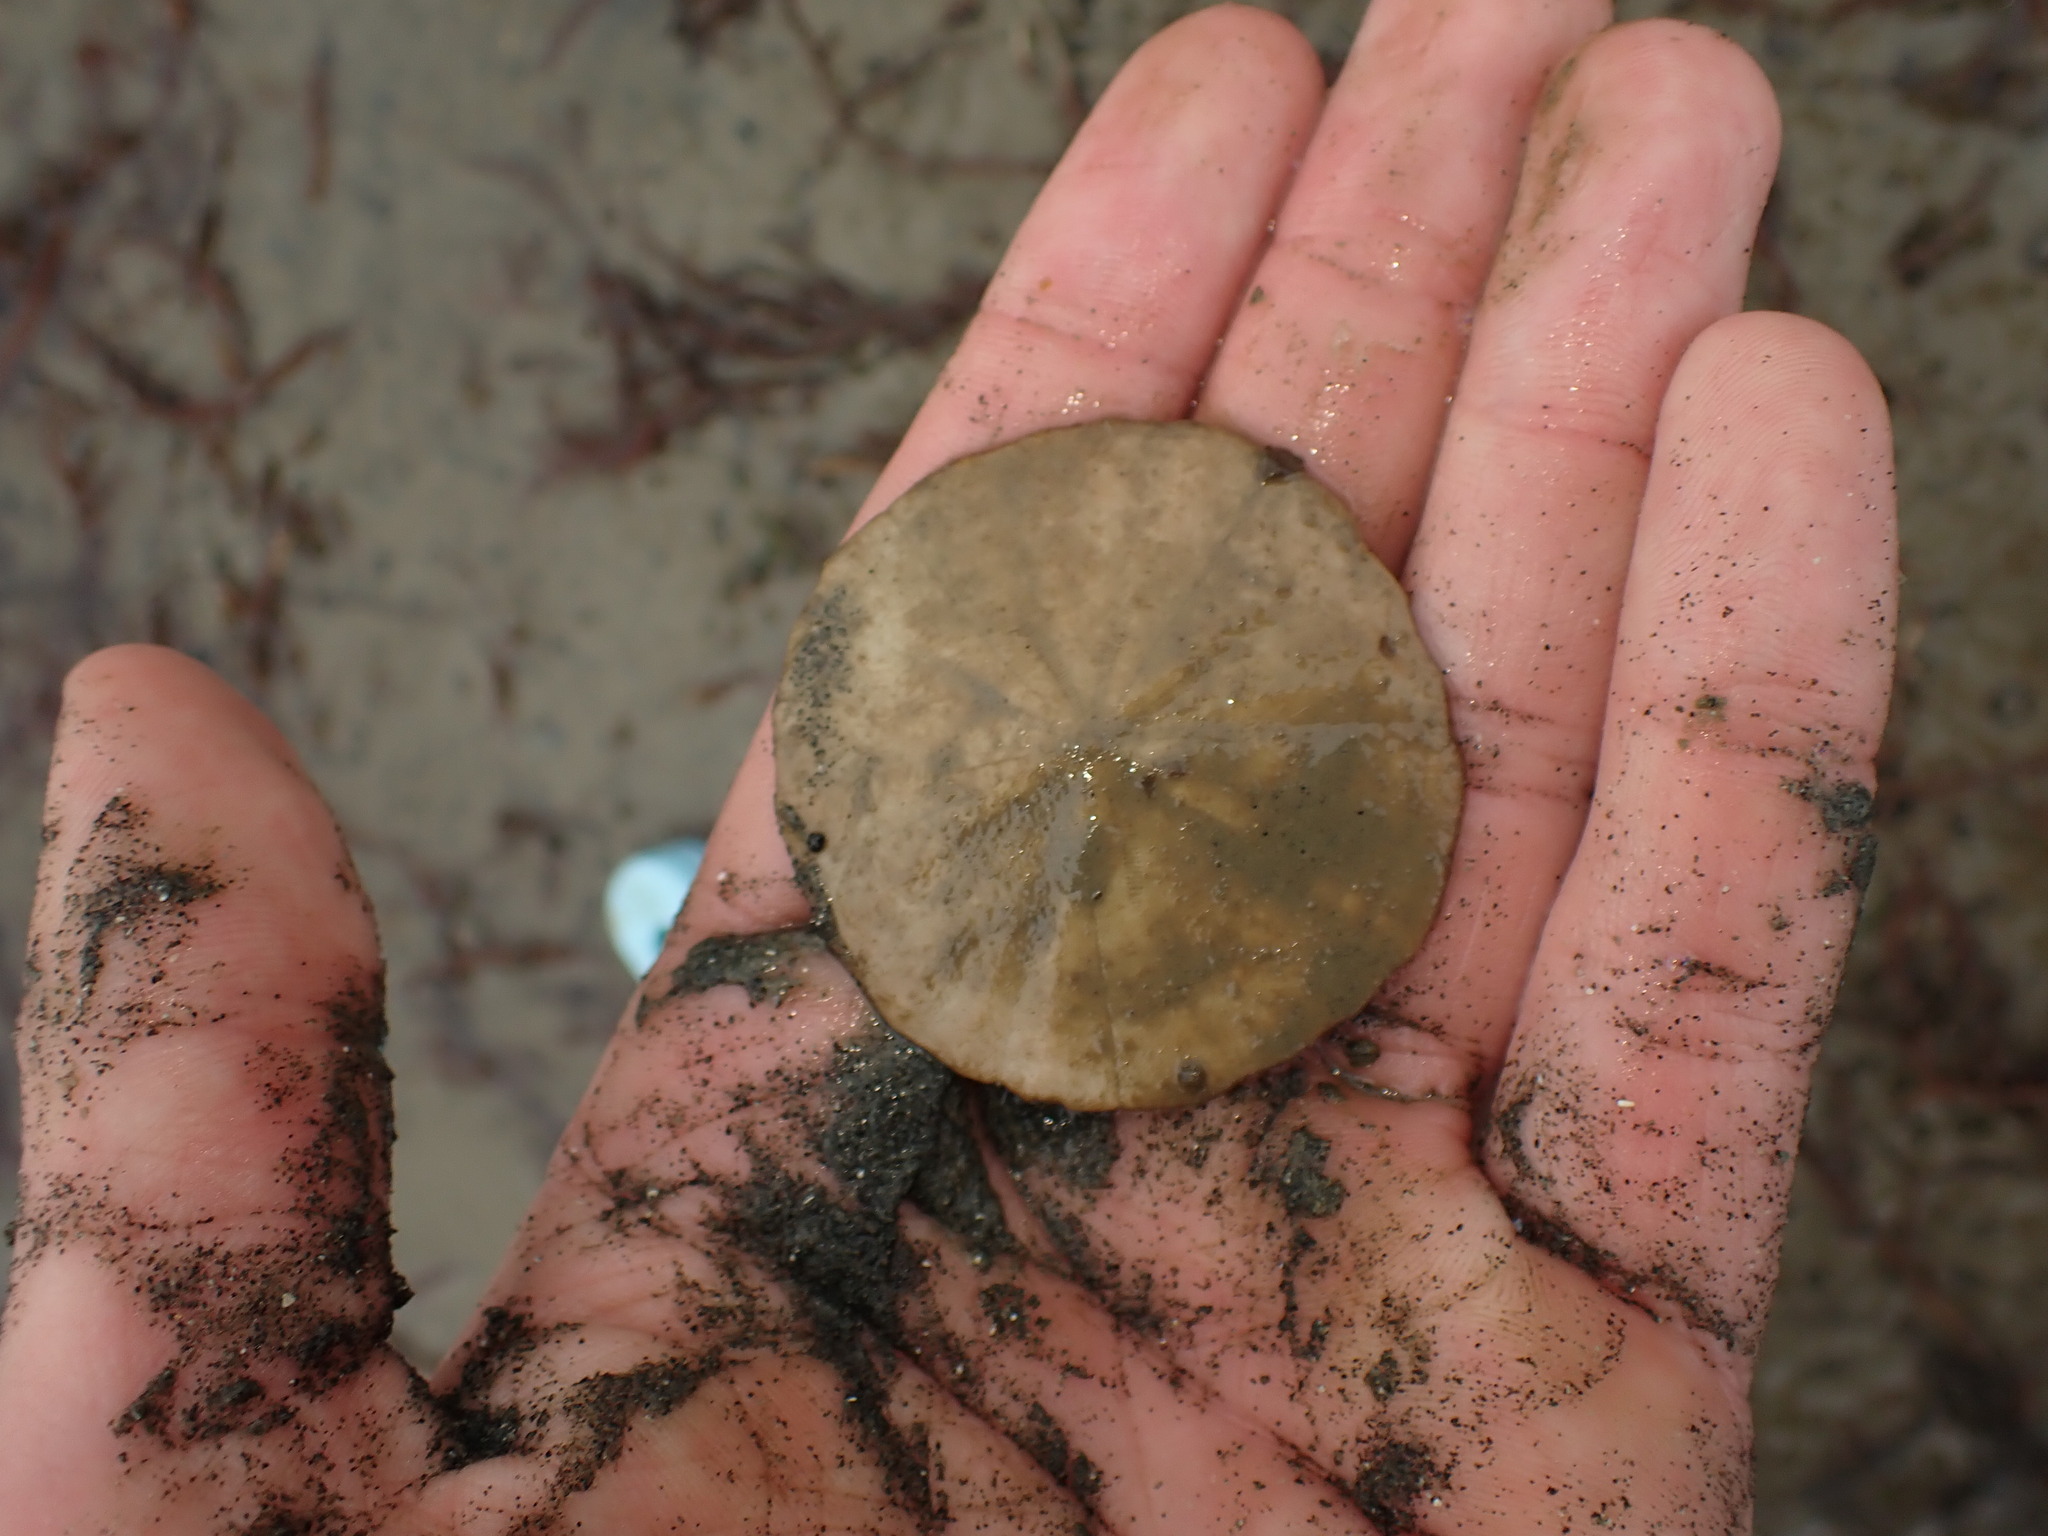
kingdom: Animalia
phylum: Echinodermata
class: Echinoidea
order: Clypeasteroida
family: Clypeasteridae
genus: Fellaster
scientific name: Fellaster zelandiae
